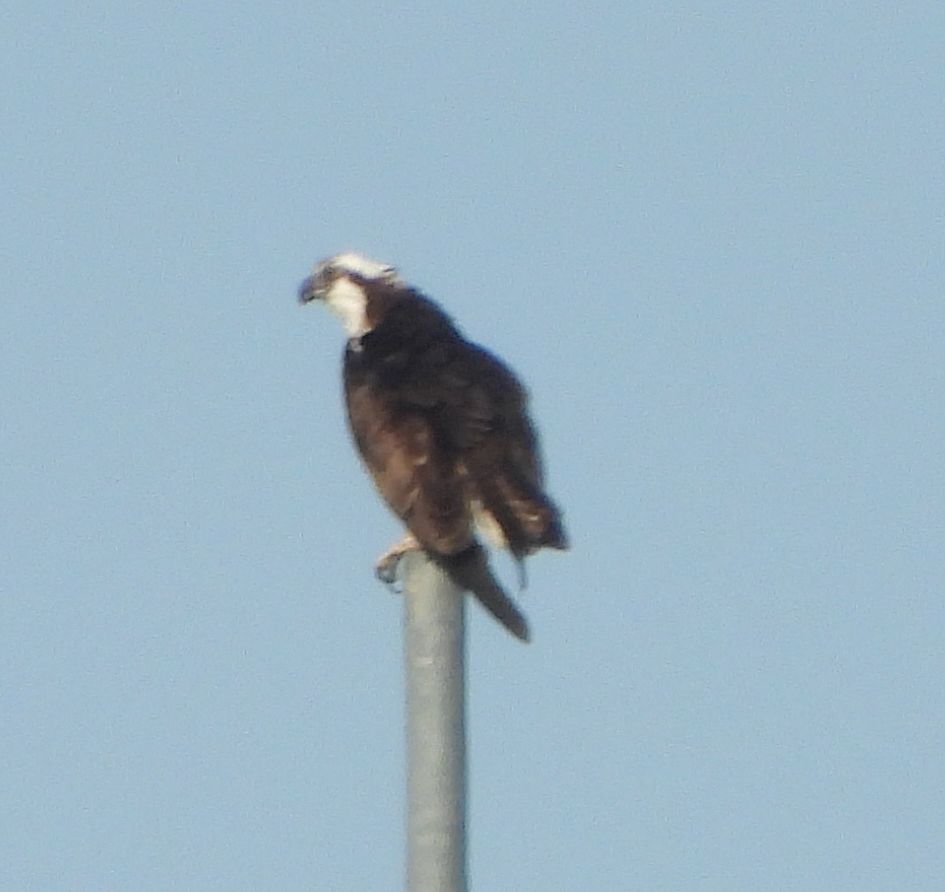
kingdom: Animalia
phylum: Chordata
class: Aves
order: Accipitriformes
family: Pandionidae
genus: Pandion
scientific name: Pandion haliaetus
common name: Osprey
